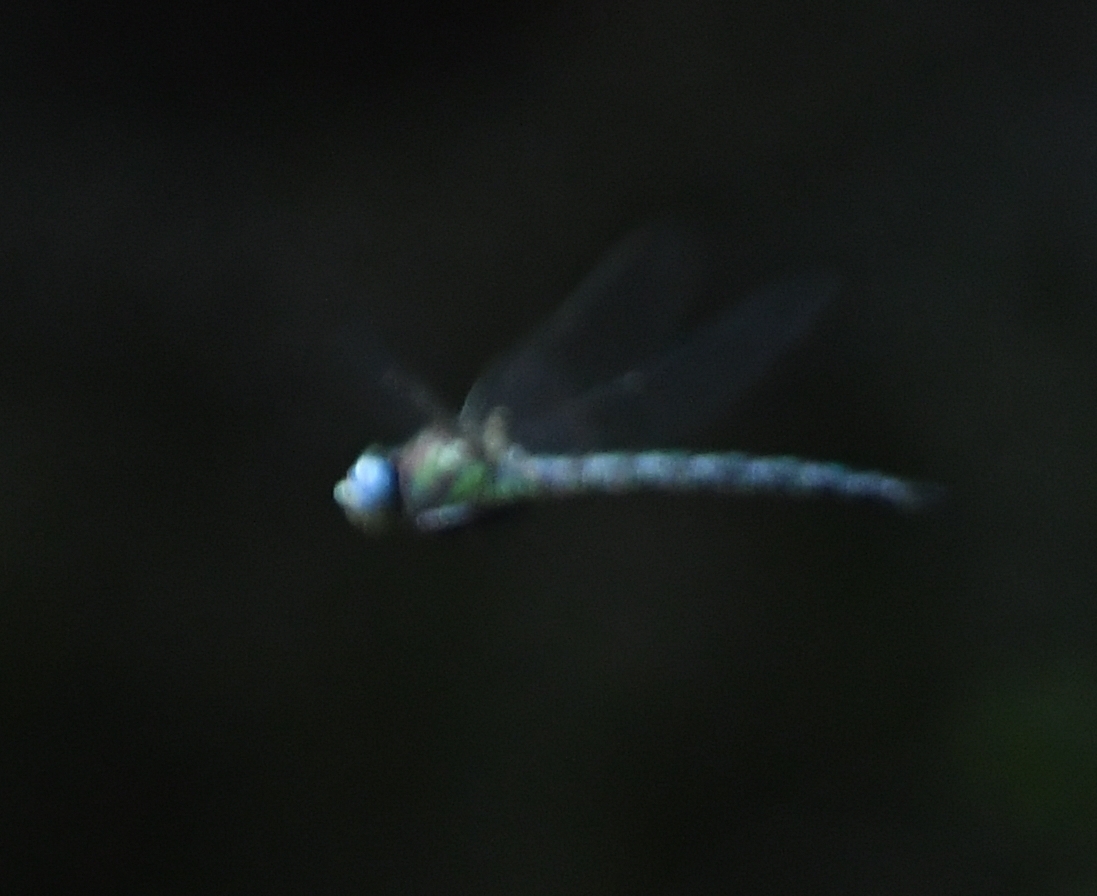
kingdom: Animalia
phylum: Arthropoda
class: Insecta
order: Odonata
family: Aeshnidae
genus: Nasiaeschna
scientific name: Nasiaeschna pentacantha
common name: Cyrano darner
